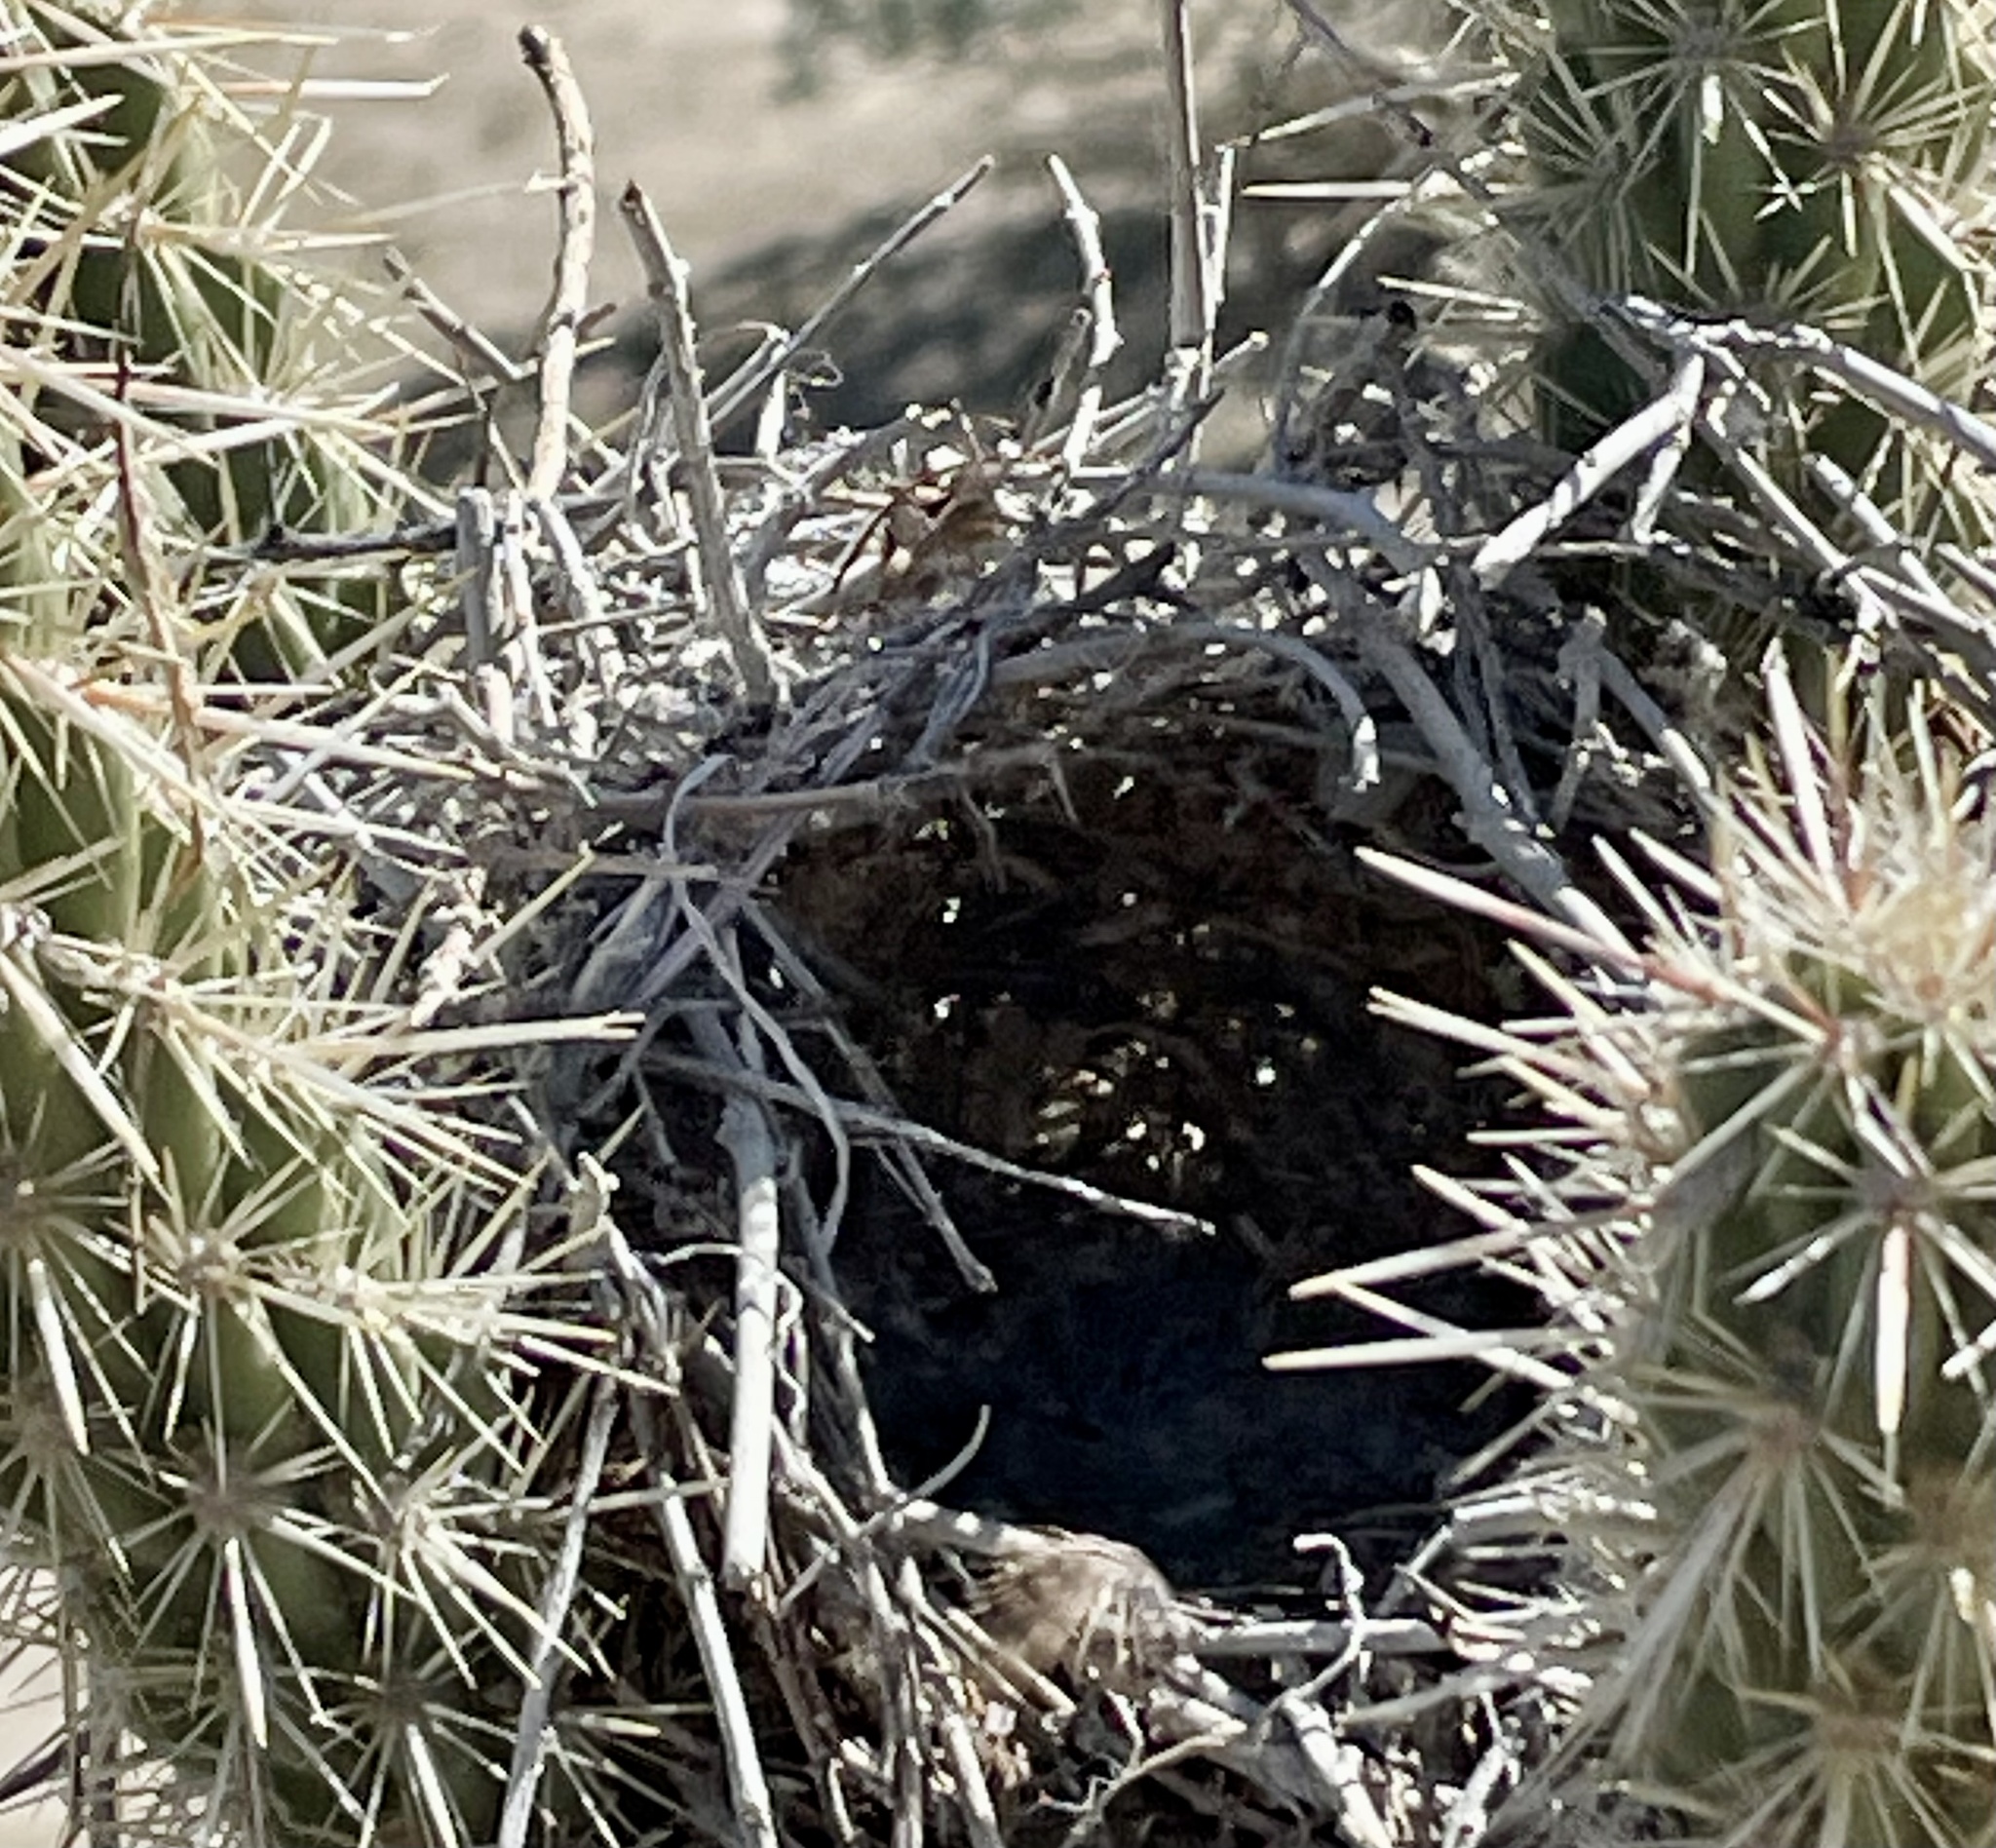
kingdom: Plantae
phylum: Tracheophyta
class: Magnoliopsida
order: Caryophyllales
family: Cactaceae
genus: Cylindropuntia
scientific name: Cylindropuntia ganderi
